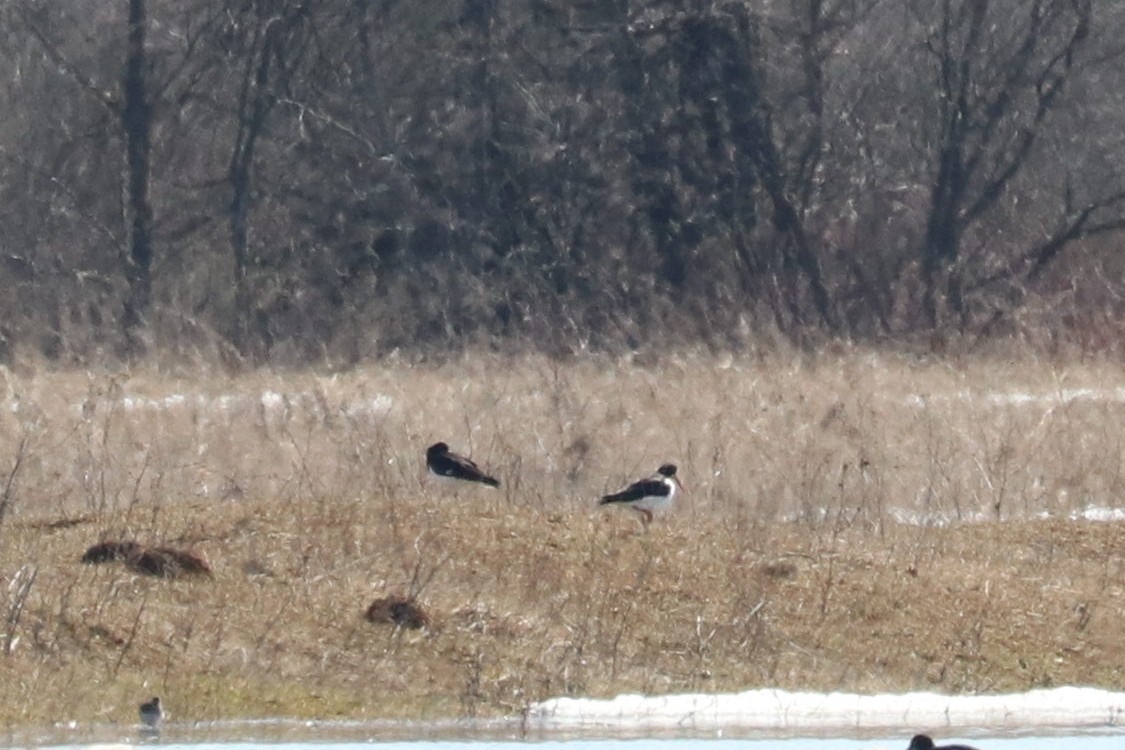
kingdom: Animalia
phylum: Chordata
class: Aves
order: Charadriiformes
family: Haematopodidae
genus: Haematopus
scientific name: Haematopus ostralegus
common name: Eurasian oystercatcher
